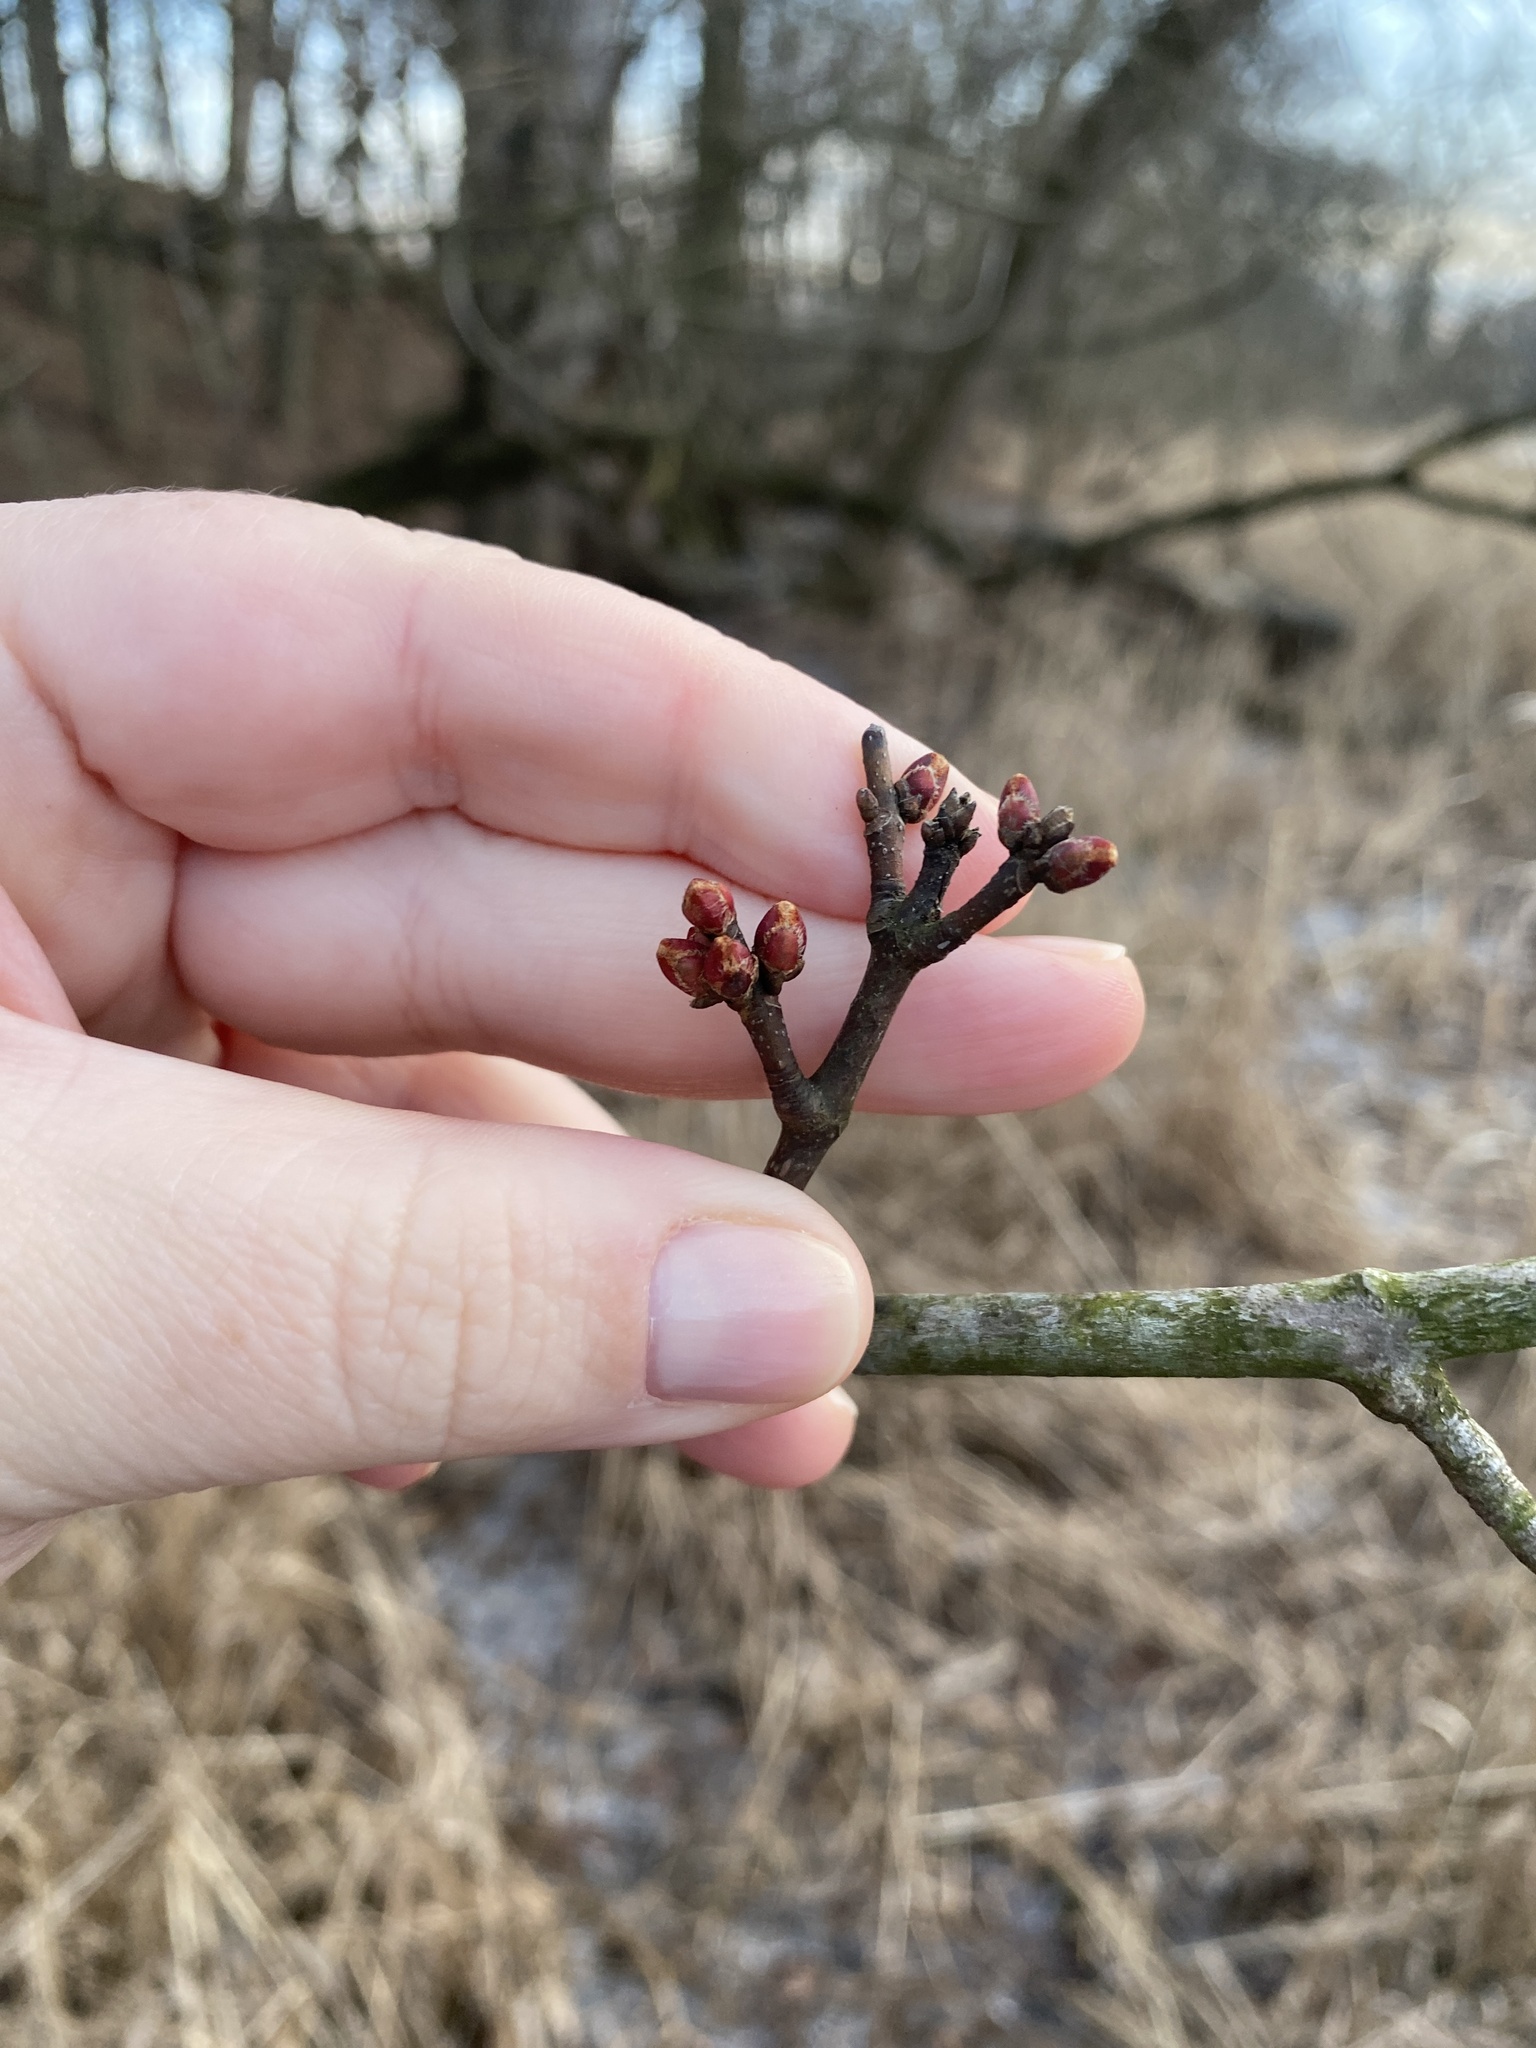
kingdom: Plantae
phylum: Tracheophyta
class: Magnoliopsida
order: Sapindales
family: Sapindaceae
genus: Acer
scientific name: Acer saccharinum
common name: Silver maple
